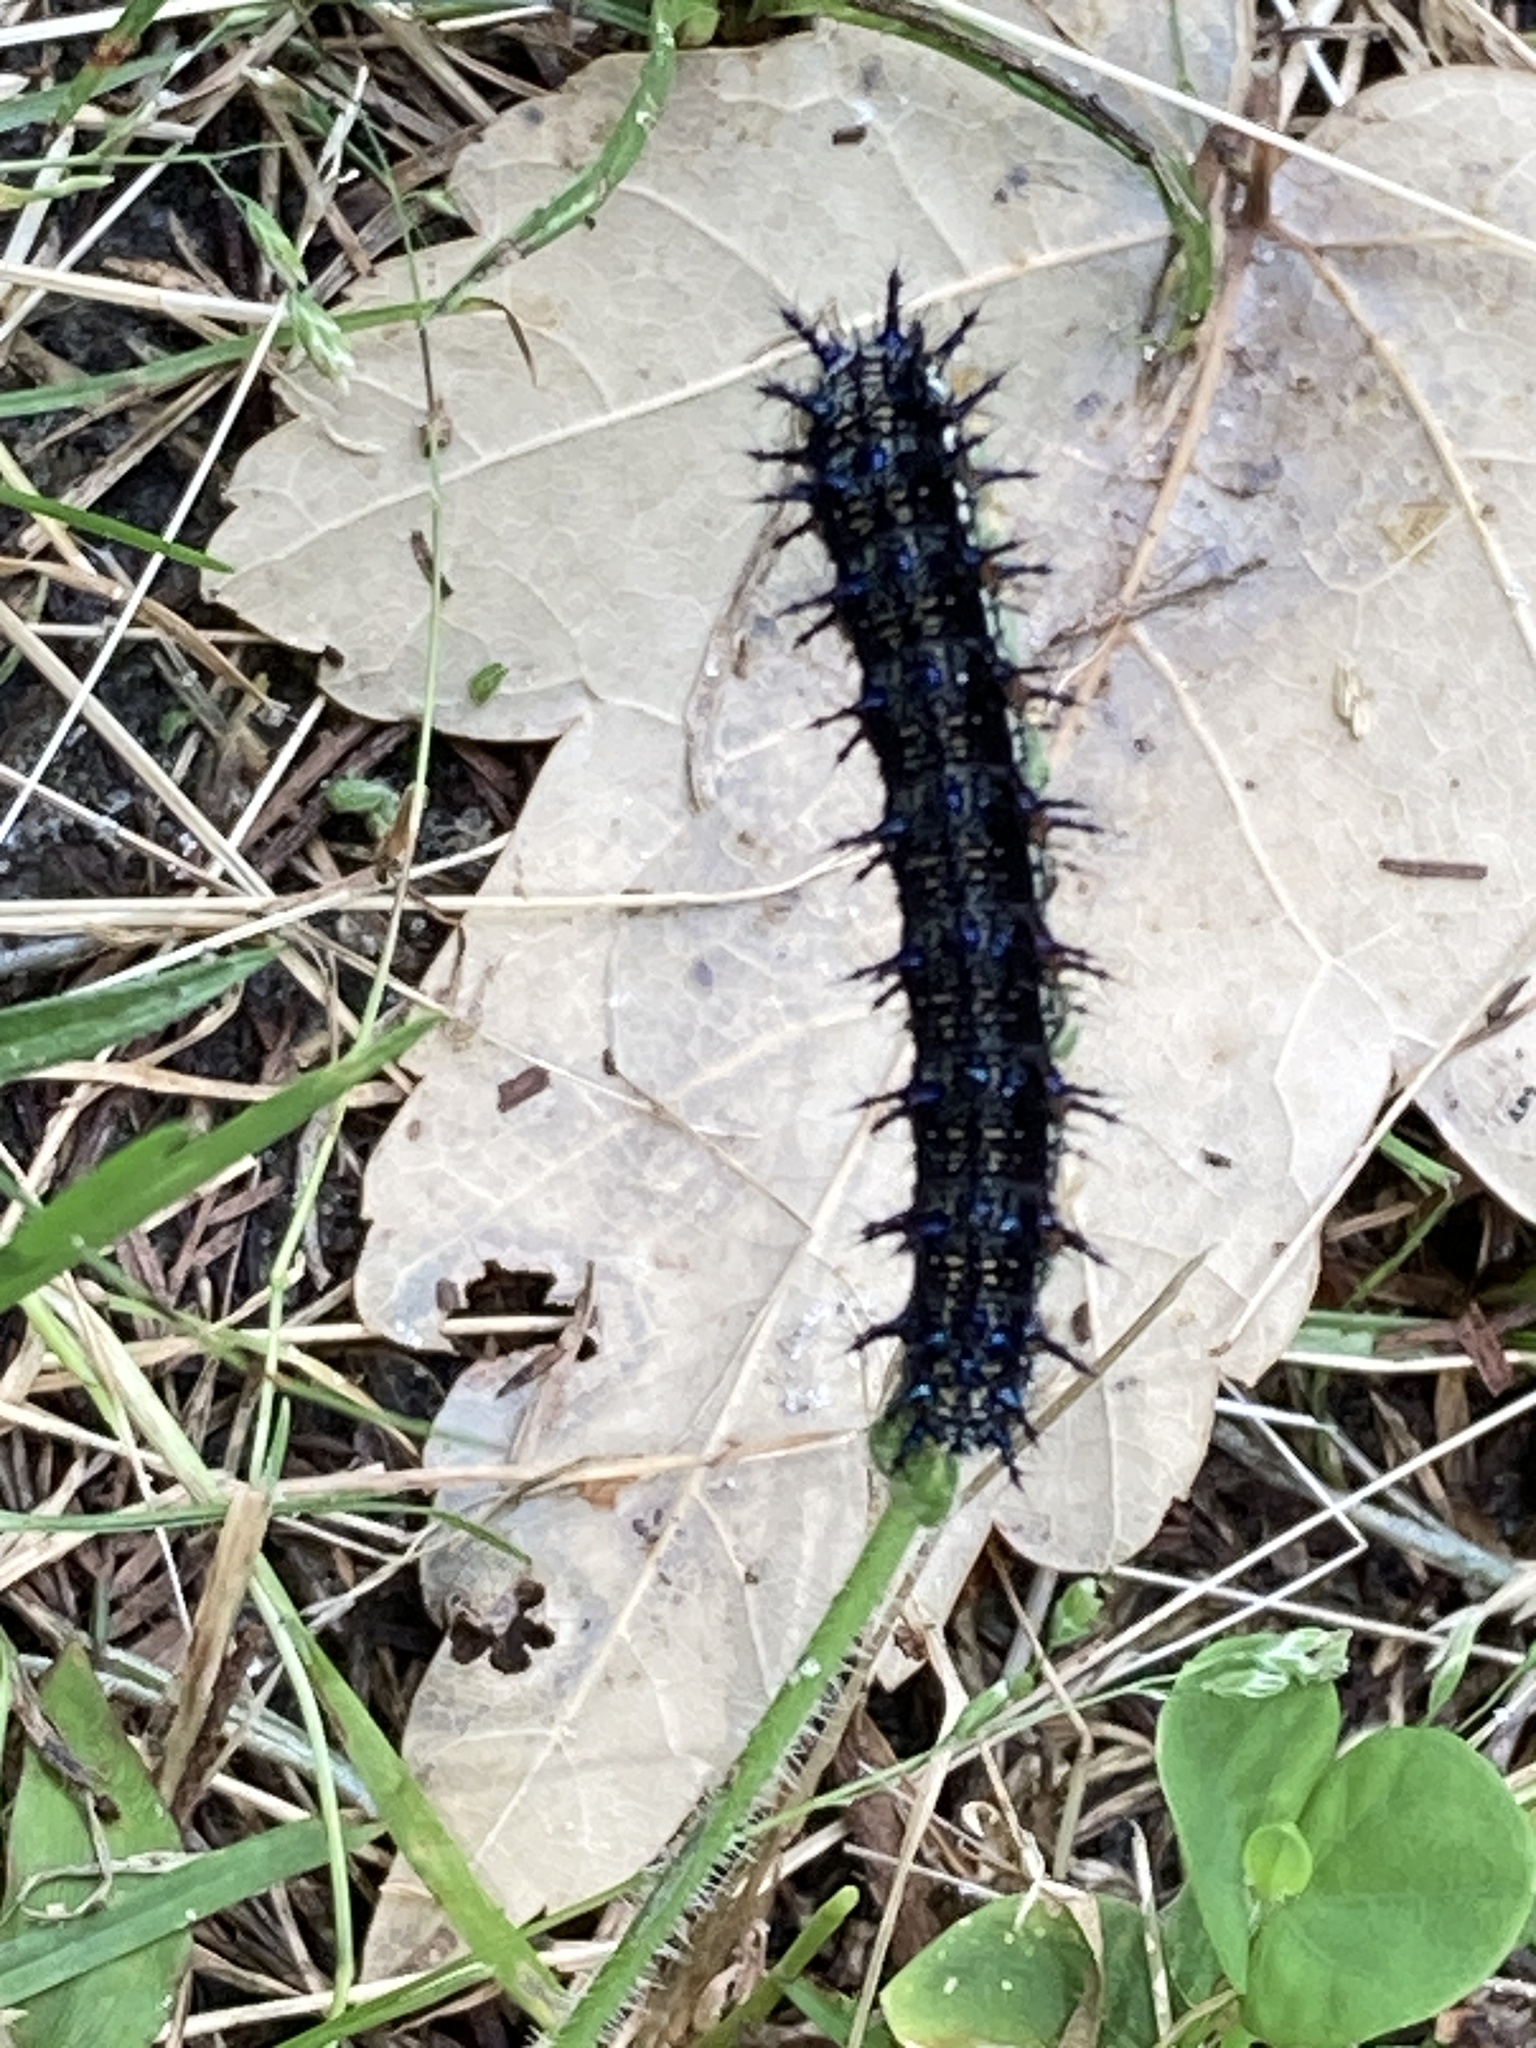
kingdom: Animalia
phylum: Arthropoda
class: Insecta
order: Lepidoptera
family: Nymphalidae
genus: Junonia
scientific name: Junonia coenia
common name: Common buckeye
